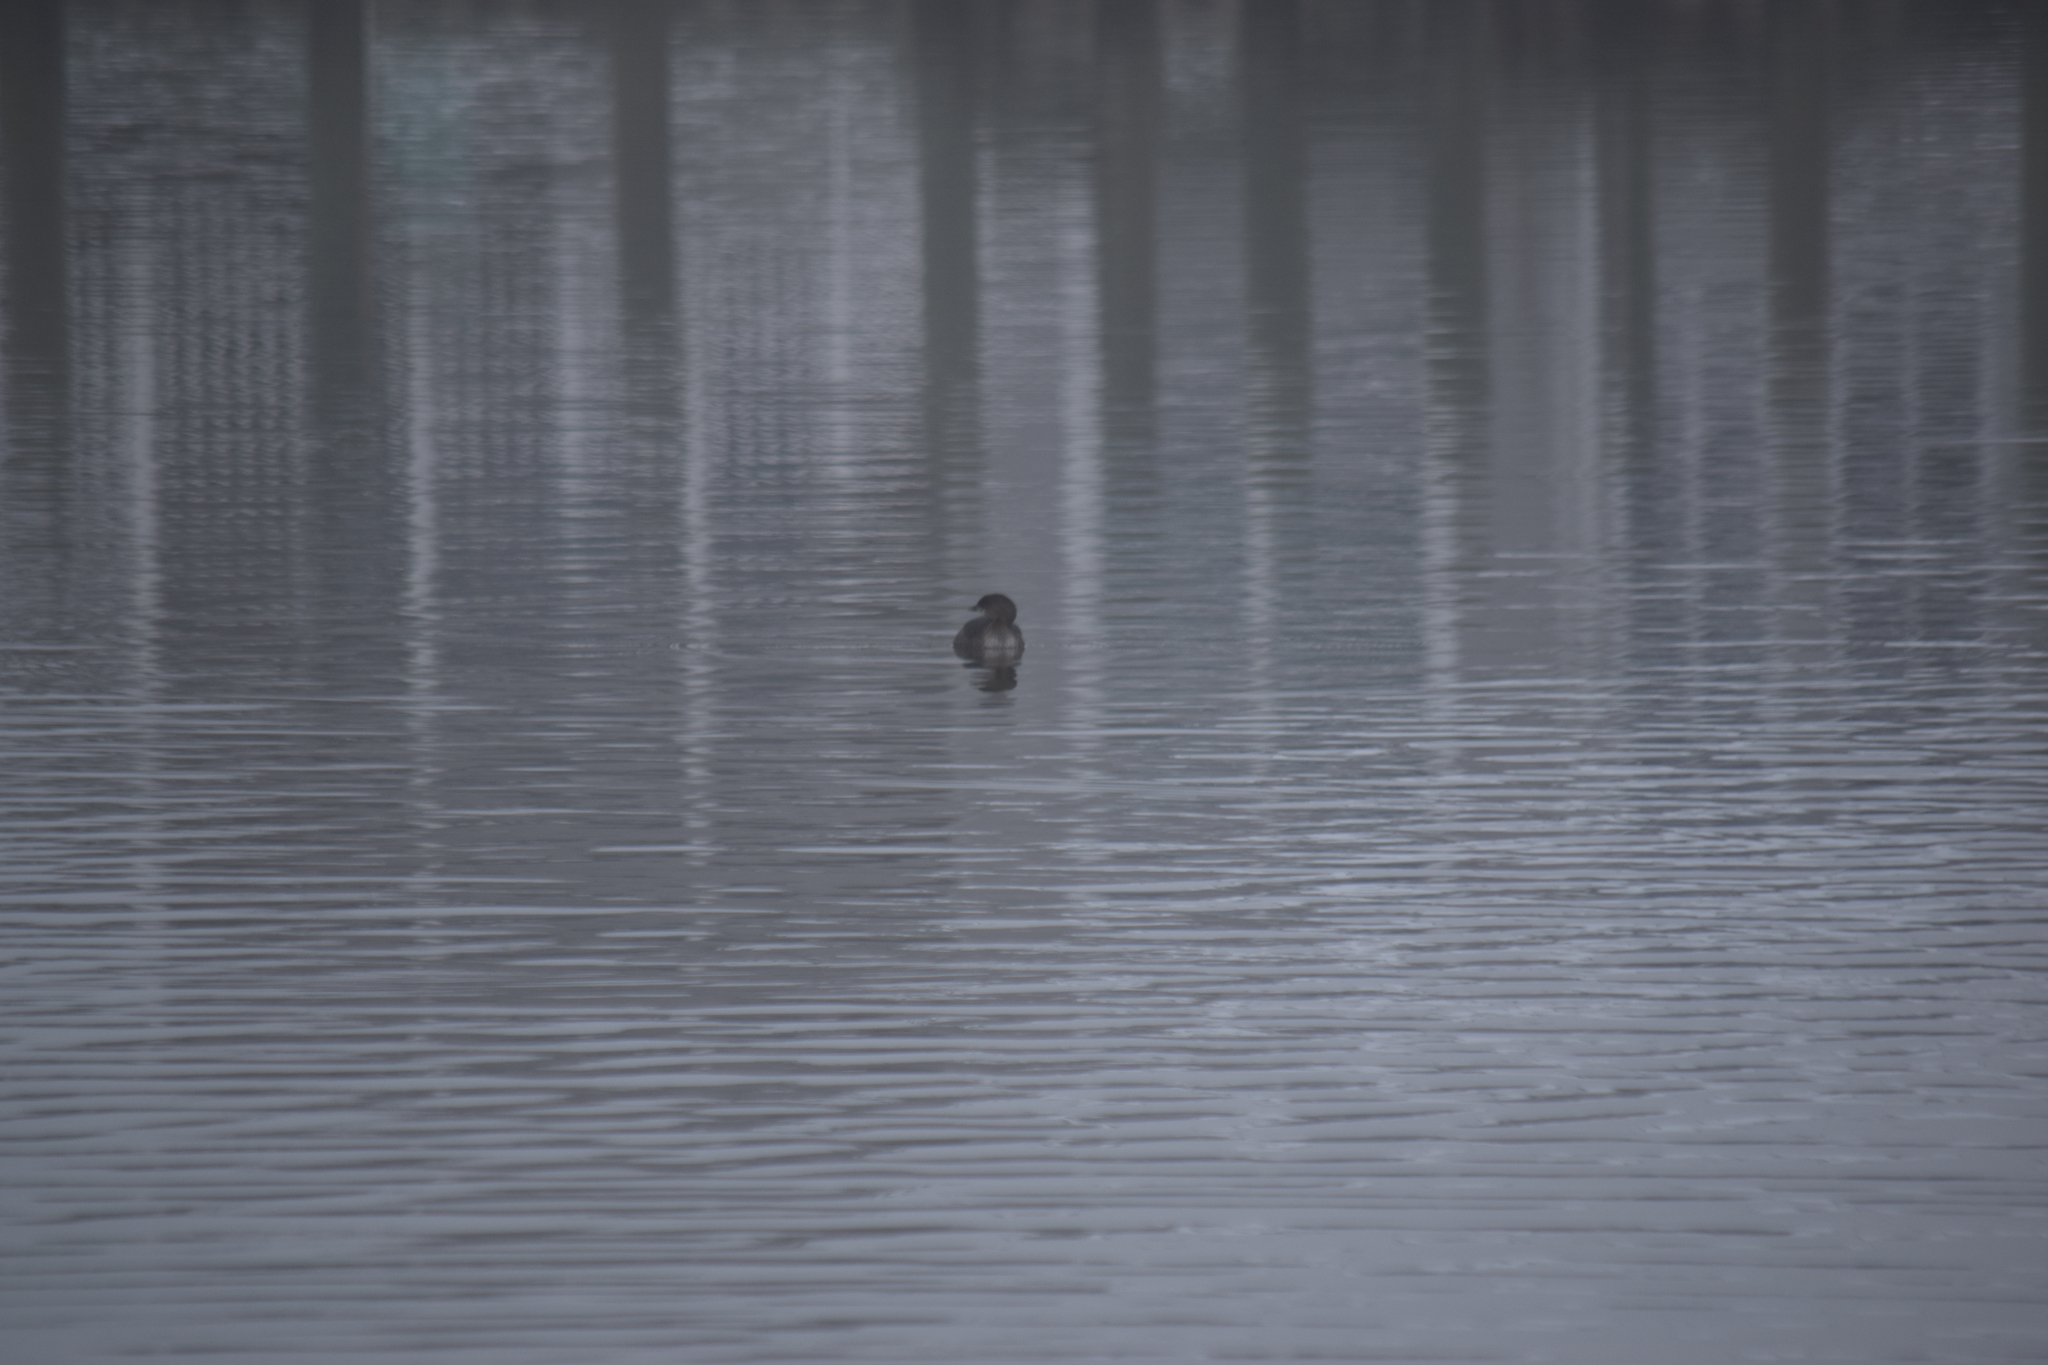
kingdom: Animalia
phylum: Chordata
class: Aves
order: Podicipediformes
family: Podicipedidae
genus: Podilymbus
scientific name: Podilymbus podiceps
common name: Pied-billed grebe
